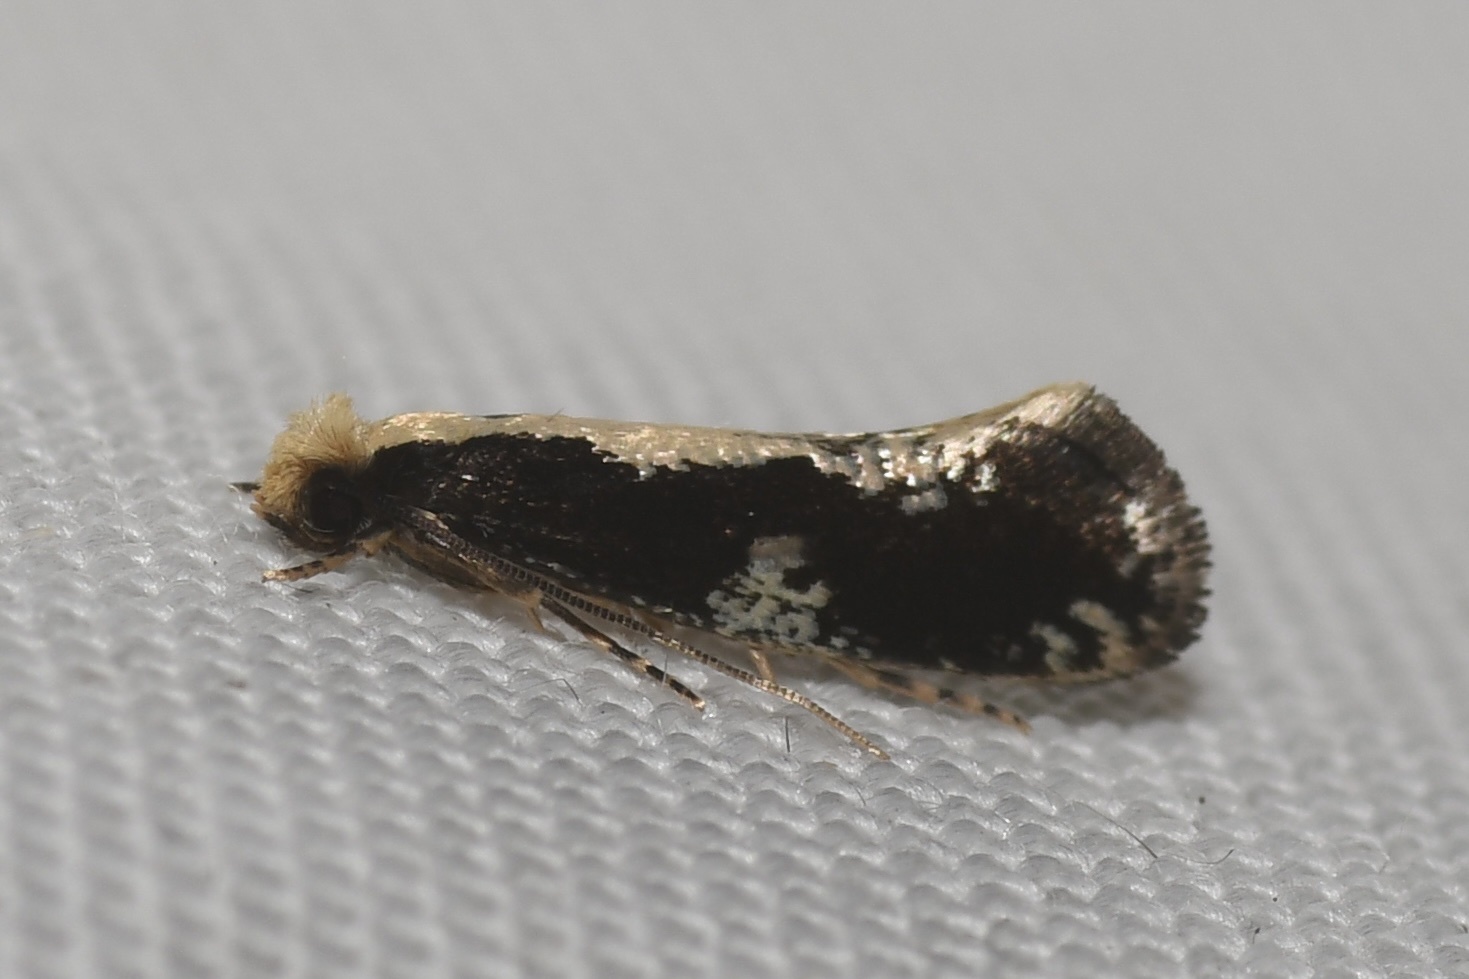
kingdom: Animalia
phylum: Arthropoda
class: Insecta
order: Lepidoptera
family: Tineidae
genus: Monopis
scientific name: Monopis dorsistrigella
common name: Skunkback monopis moth
